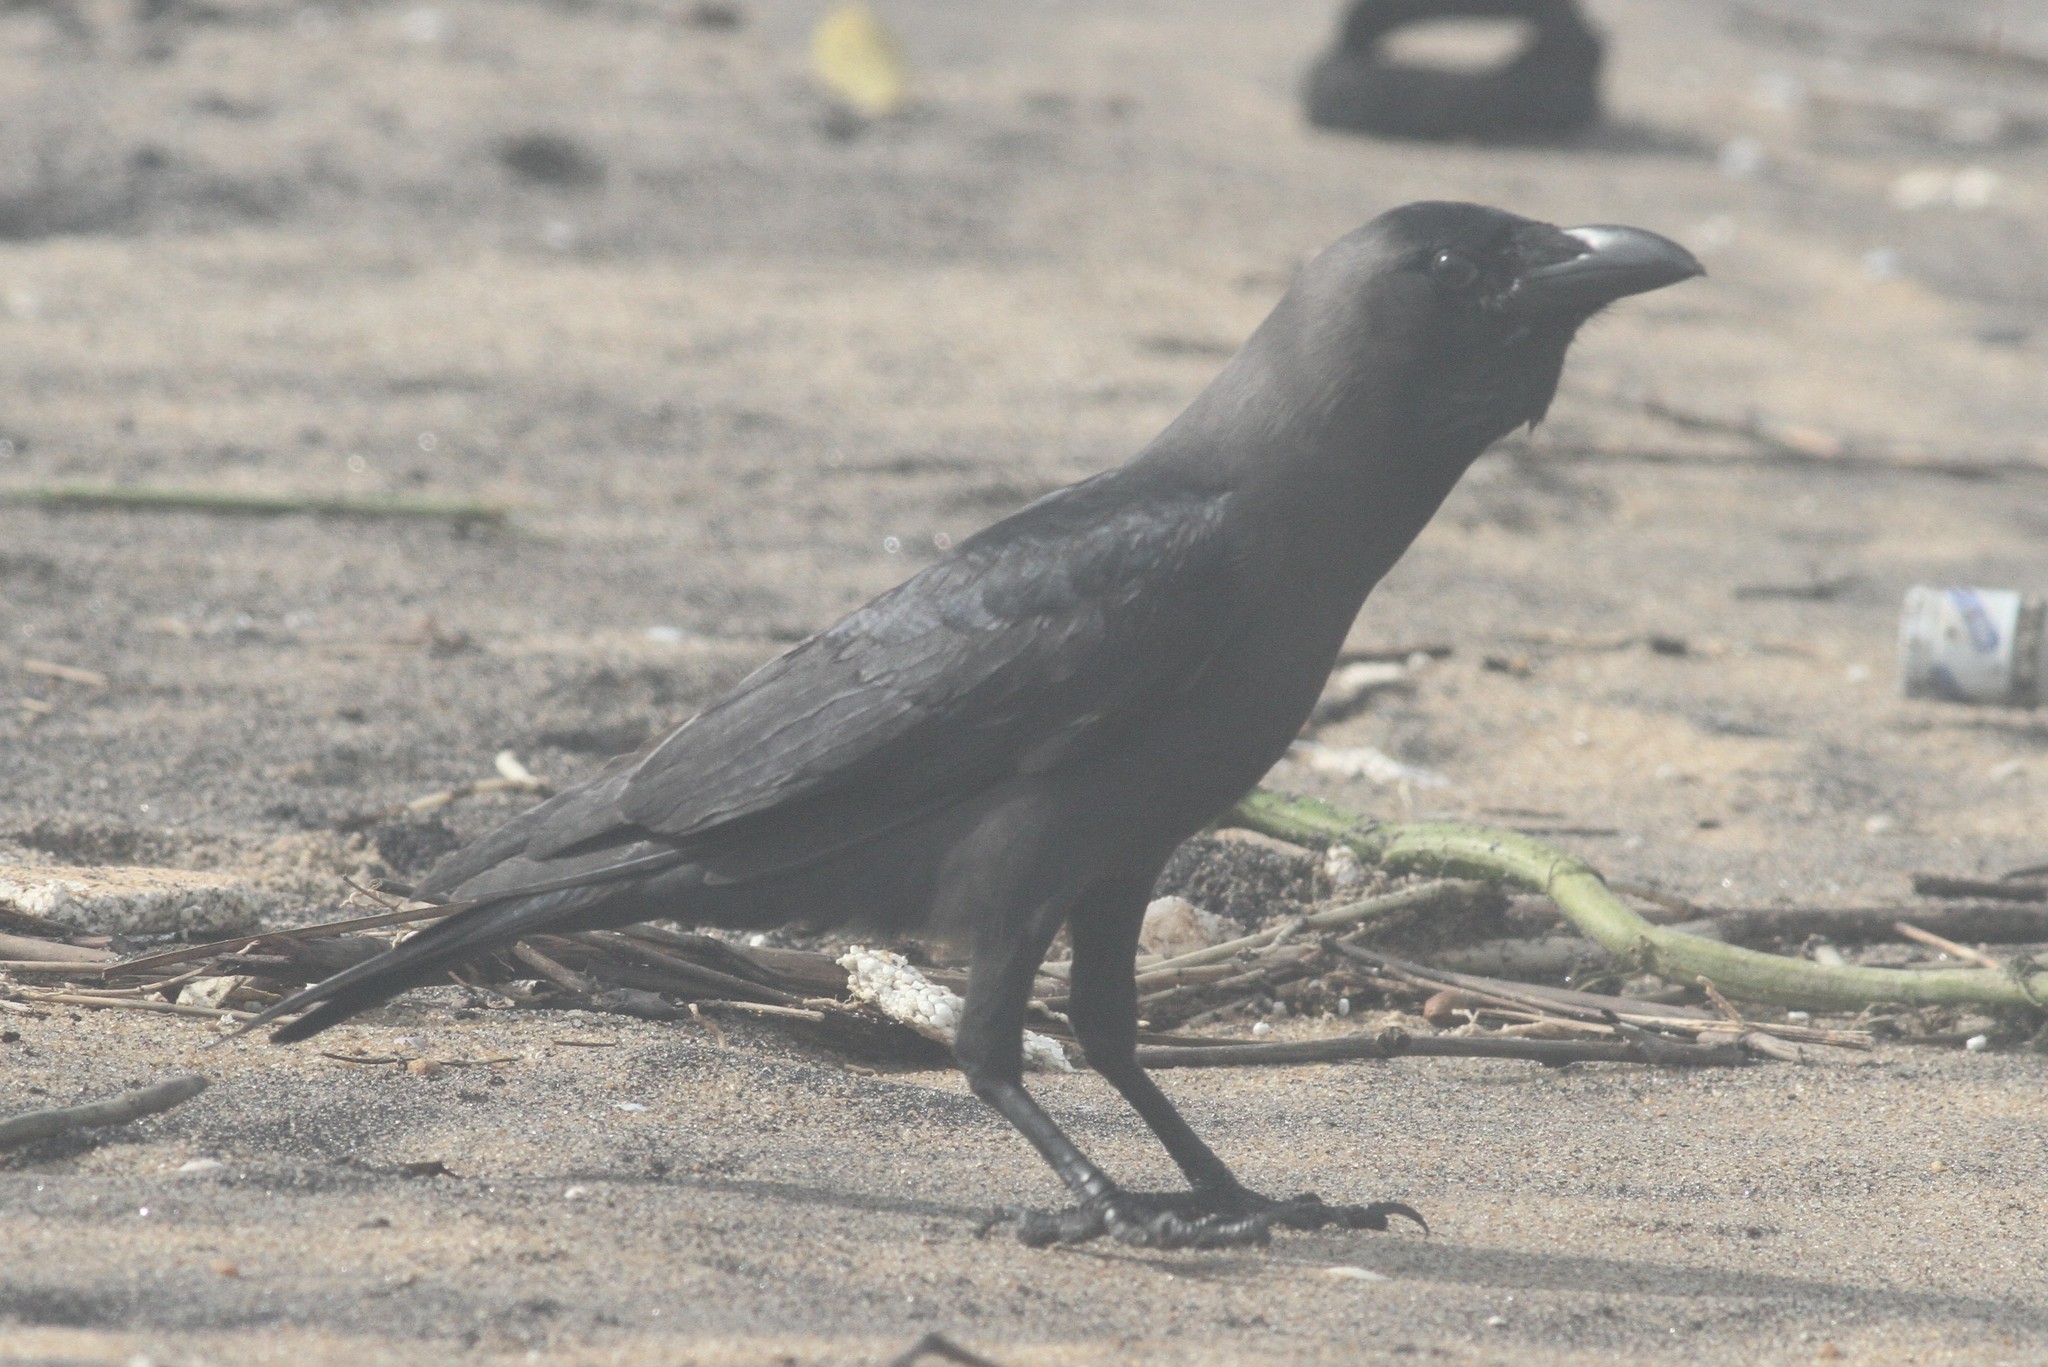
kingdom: Animalia
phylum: Chordata
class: Aves
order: Passeriformes
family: Corvidae
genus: Corvus
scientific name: Corvus splendens
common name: House crow
